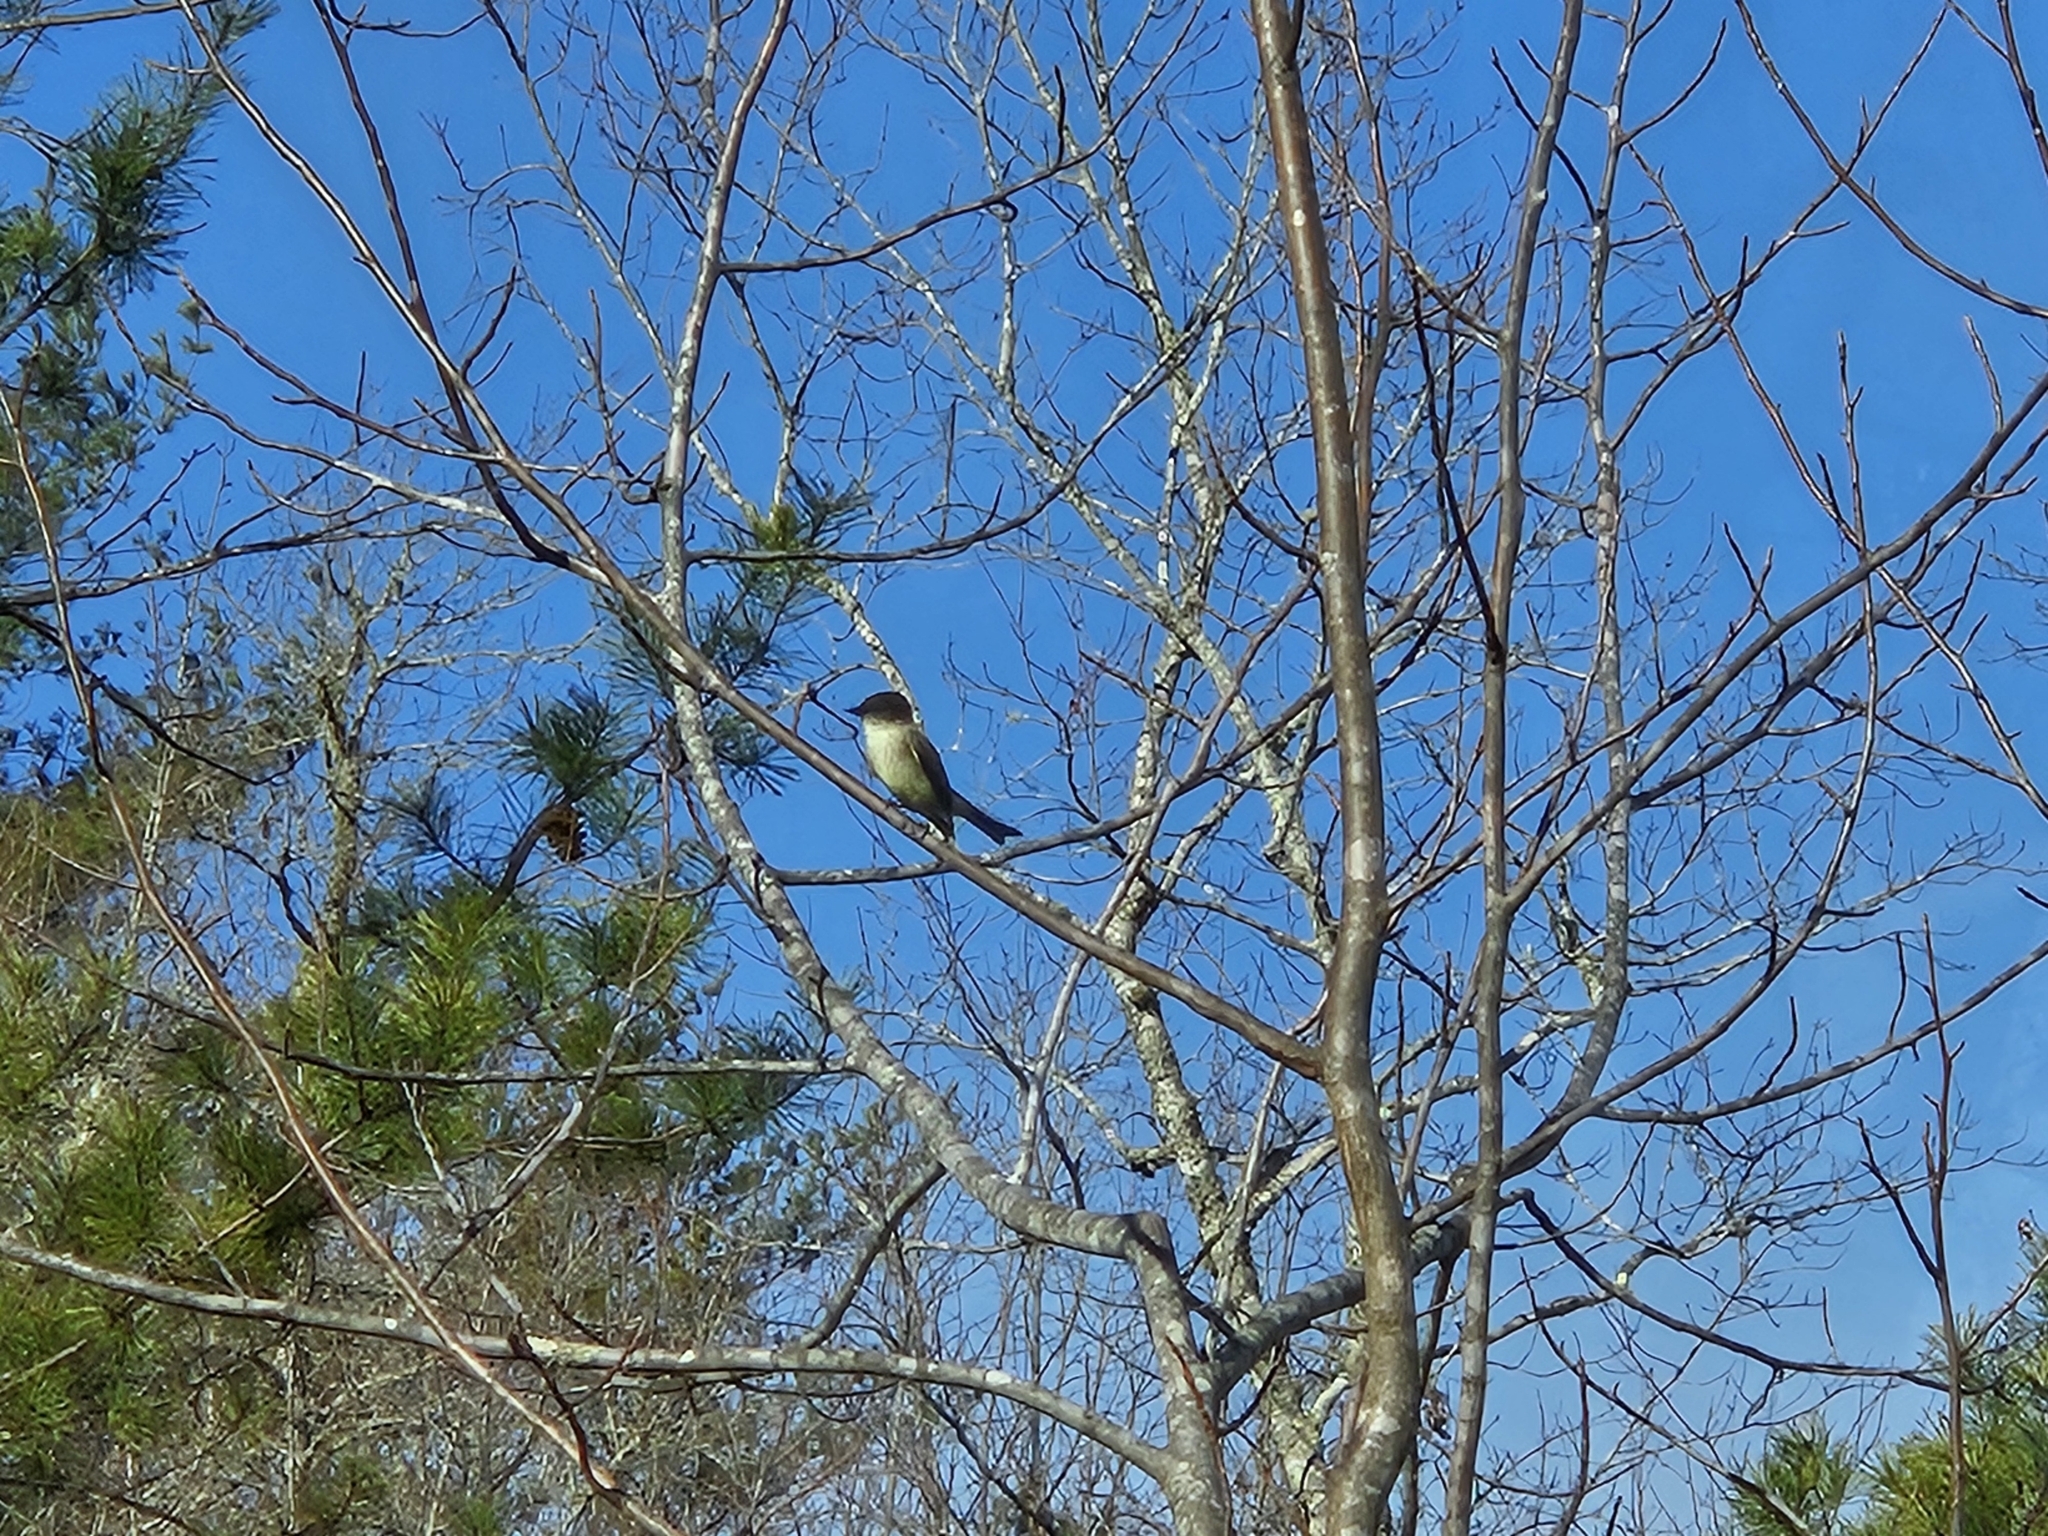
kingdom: Animalia
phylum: Chordata
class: Aves
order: Passeriformes
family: Tyrannidae
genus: Sayornis
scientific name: Sayornis phoebe
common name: Eastern phoebe
